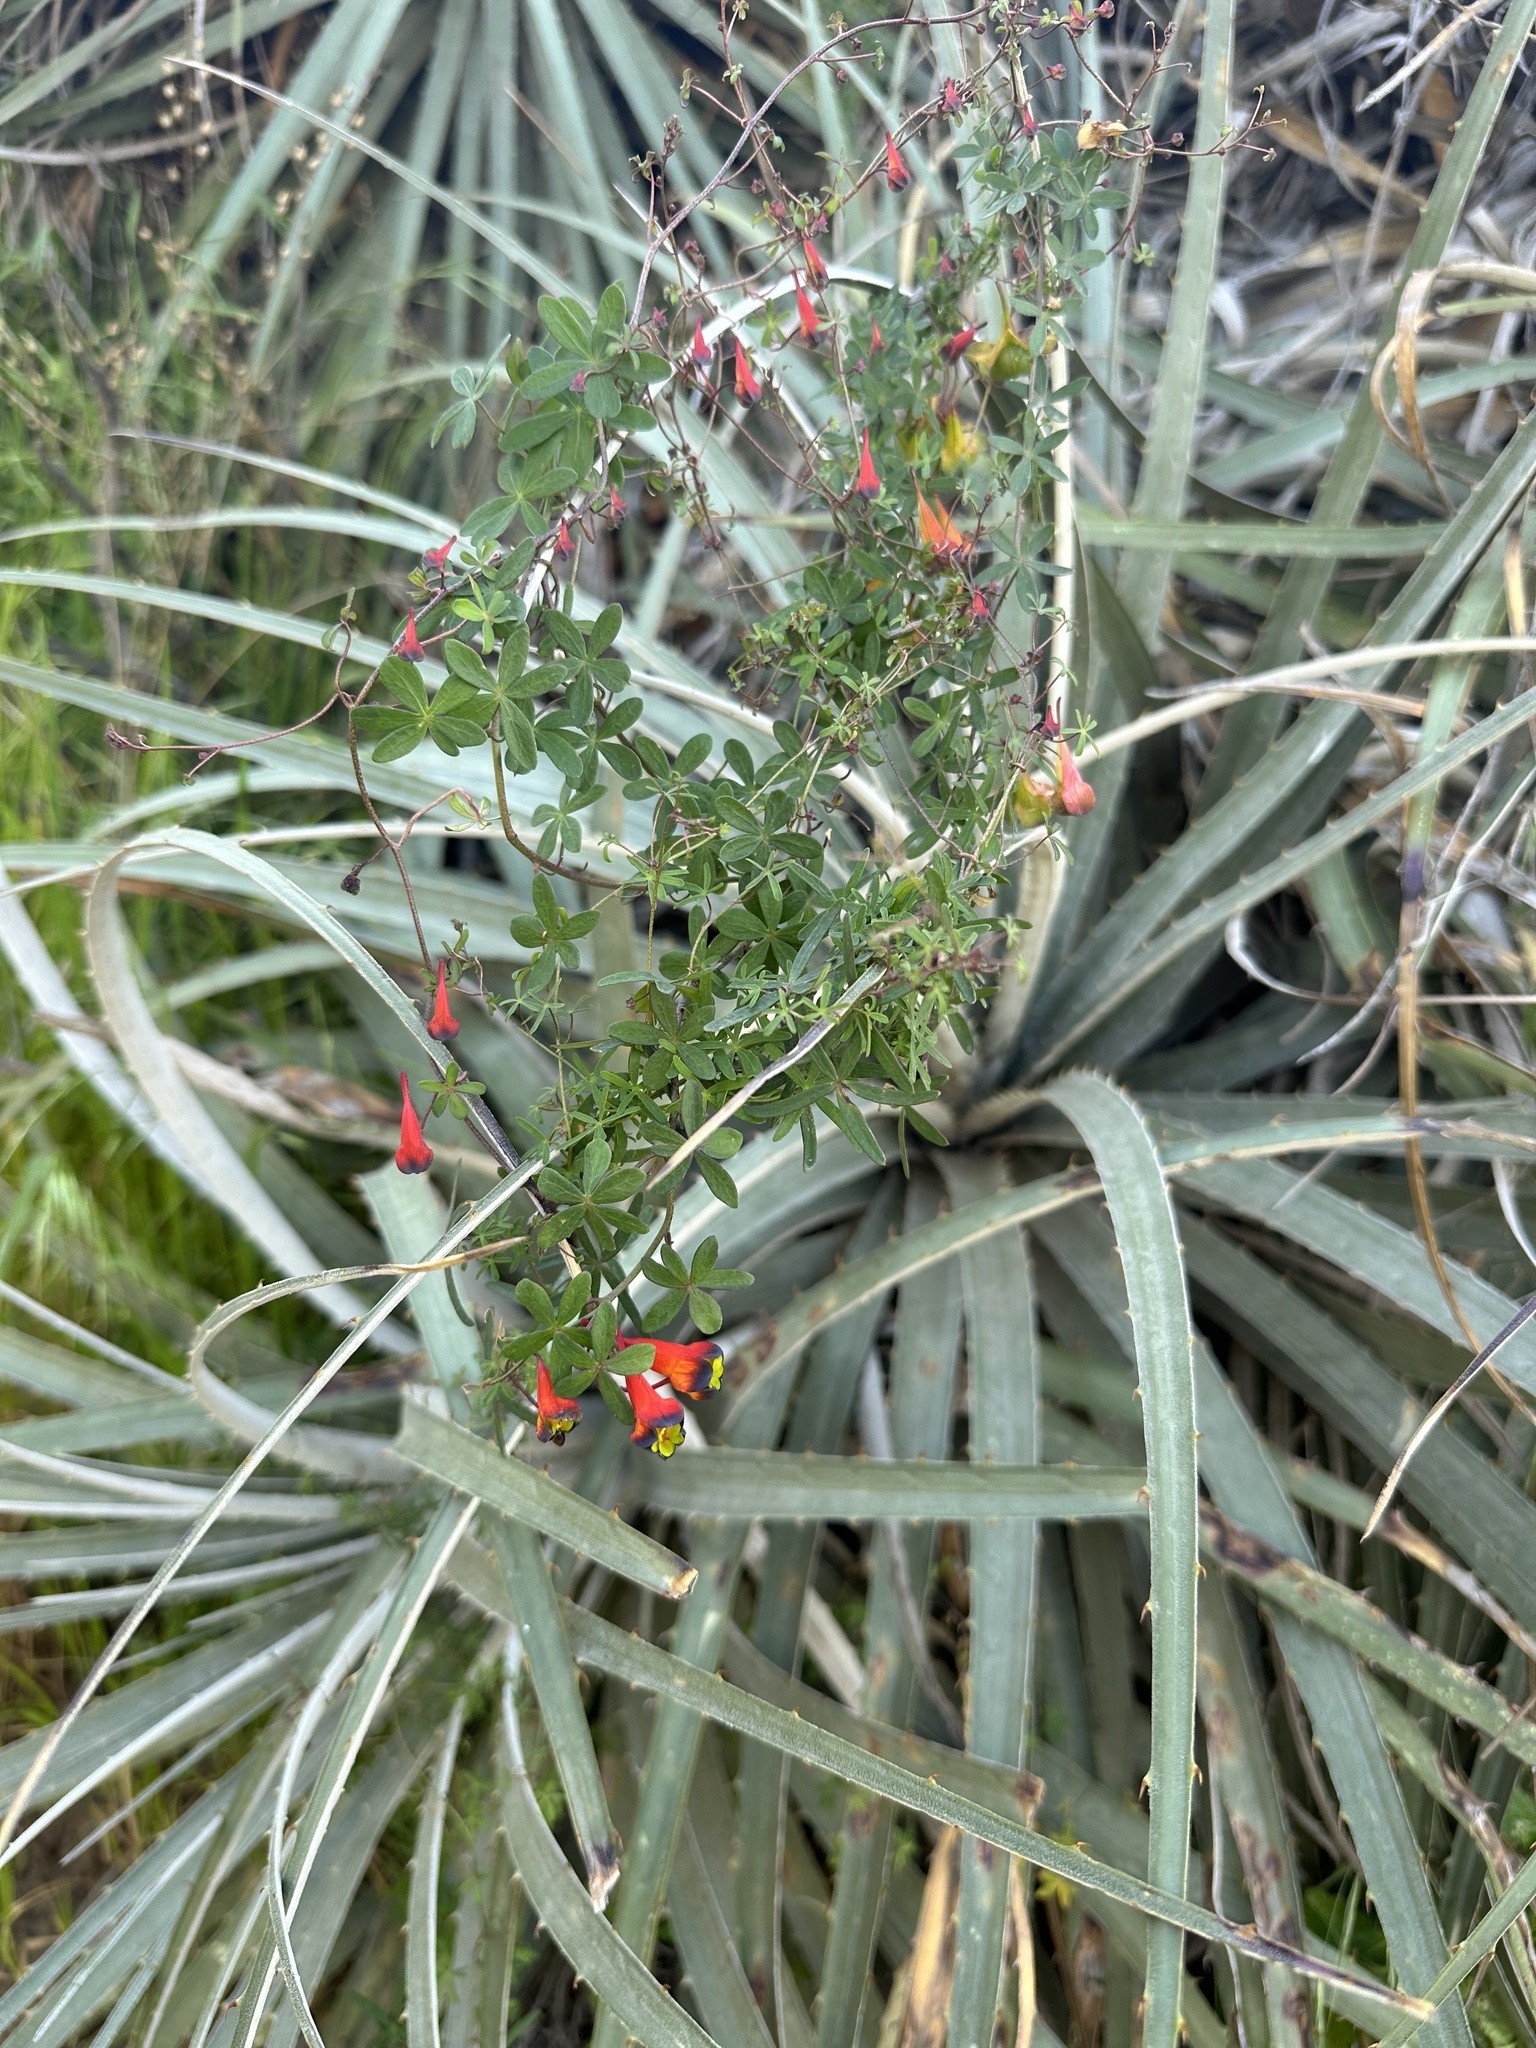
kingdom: Plantae
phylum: Tracheophyta
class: Magnoliopsida
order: Brassicales
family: Tropaeolaceae
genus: Tropaeolum
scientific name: Tropaeolum tricolor
